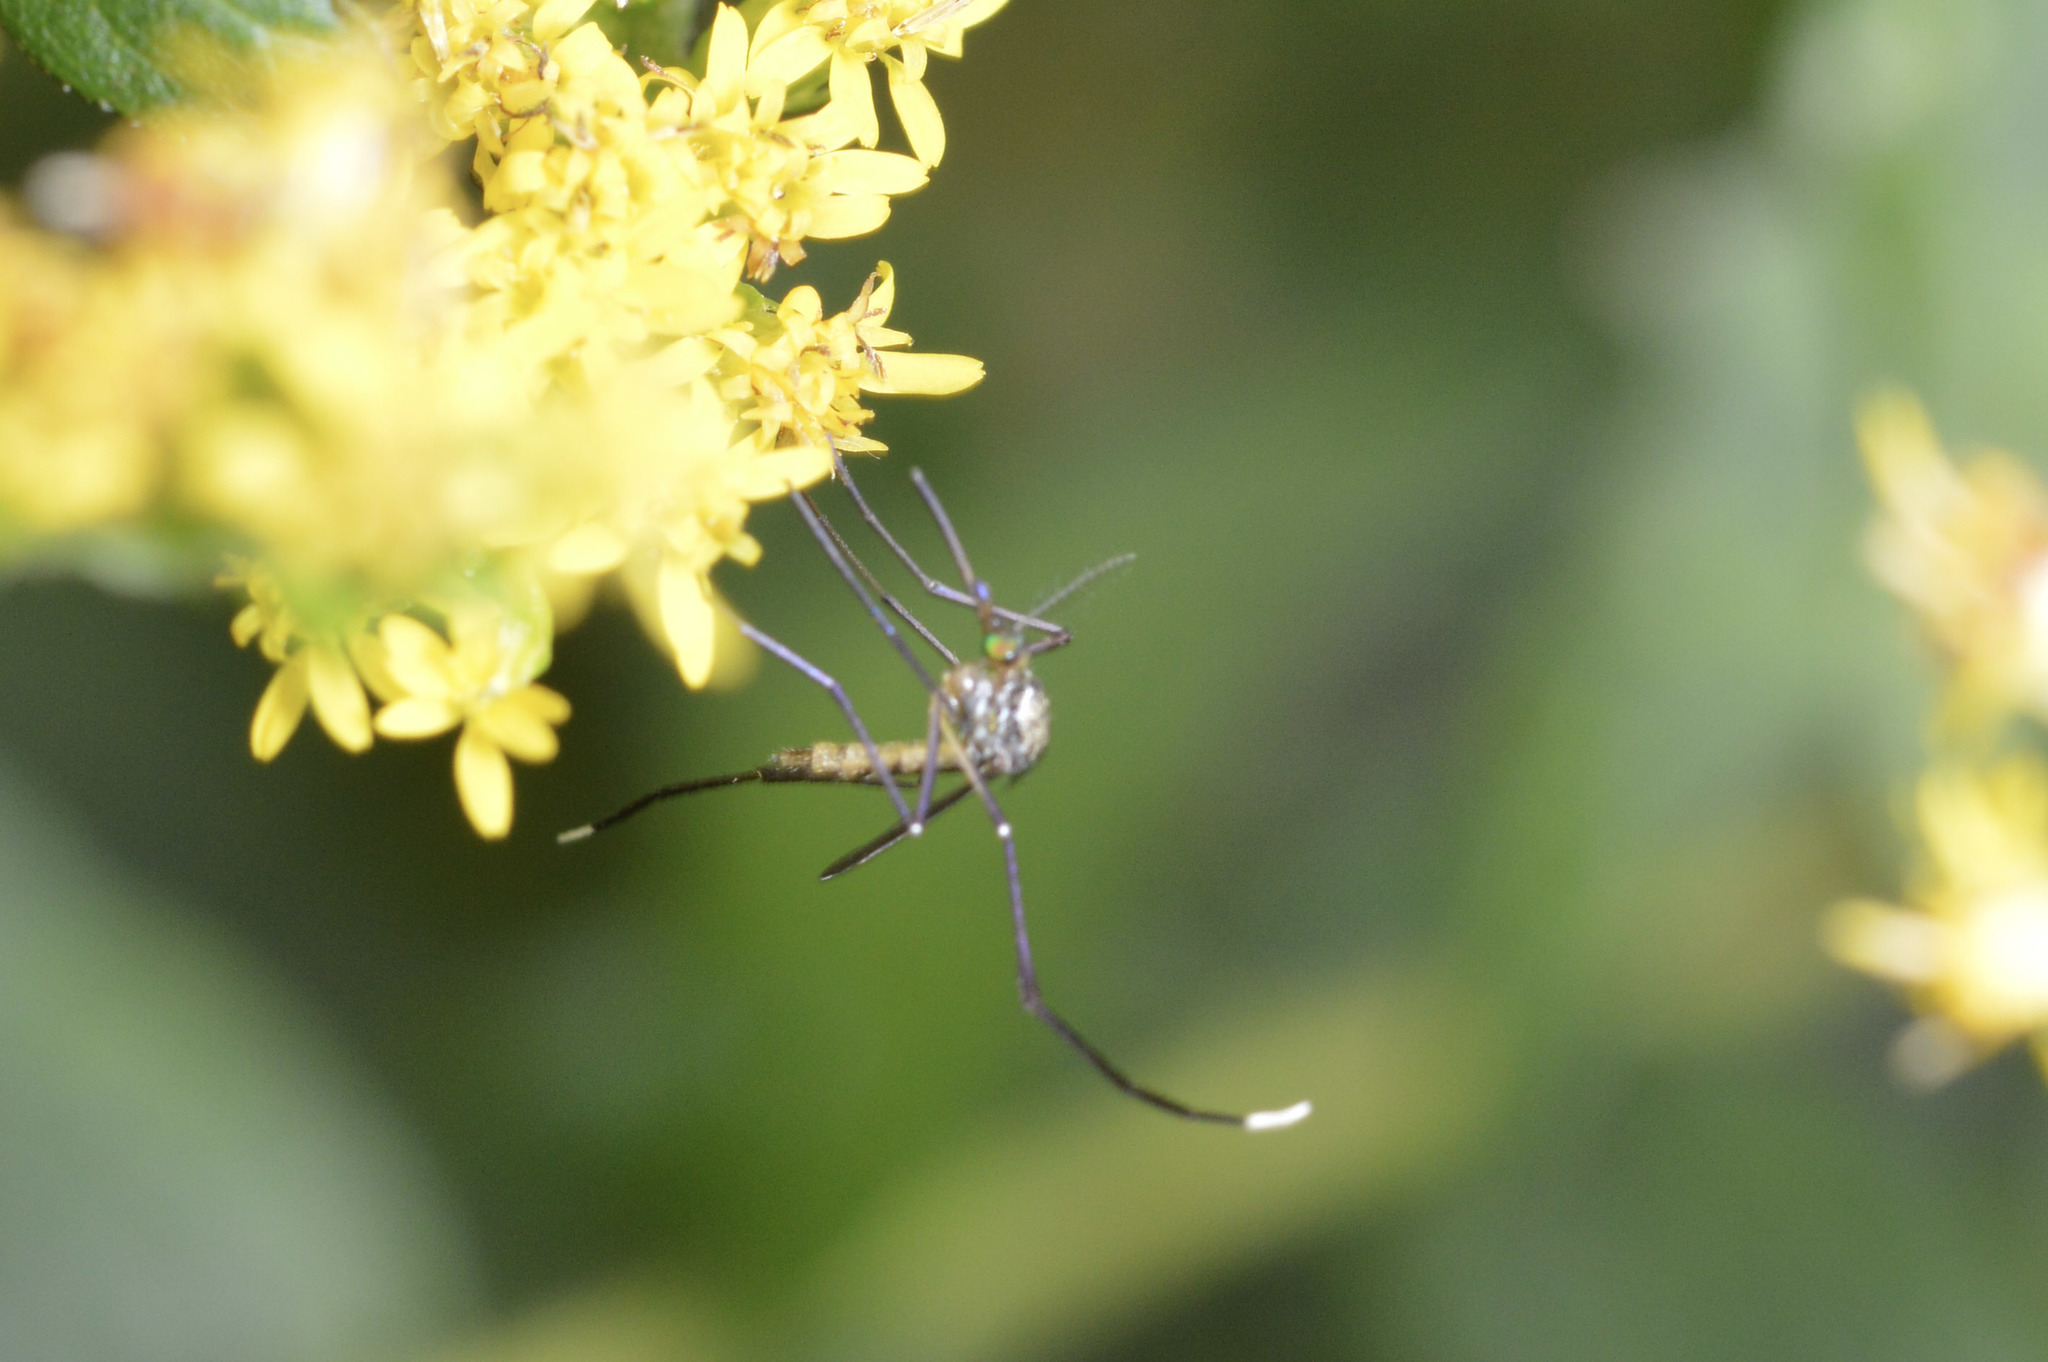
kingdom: Animalia
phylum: Arthropoda
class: Insecta
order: Diptera
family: Culicidae
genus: Psorophora
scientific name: Psorophora ferox
